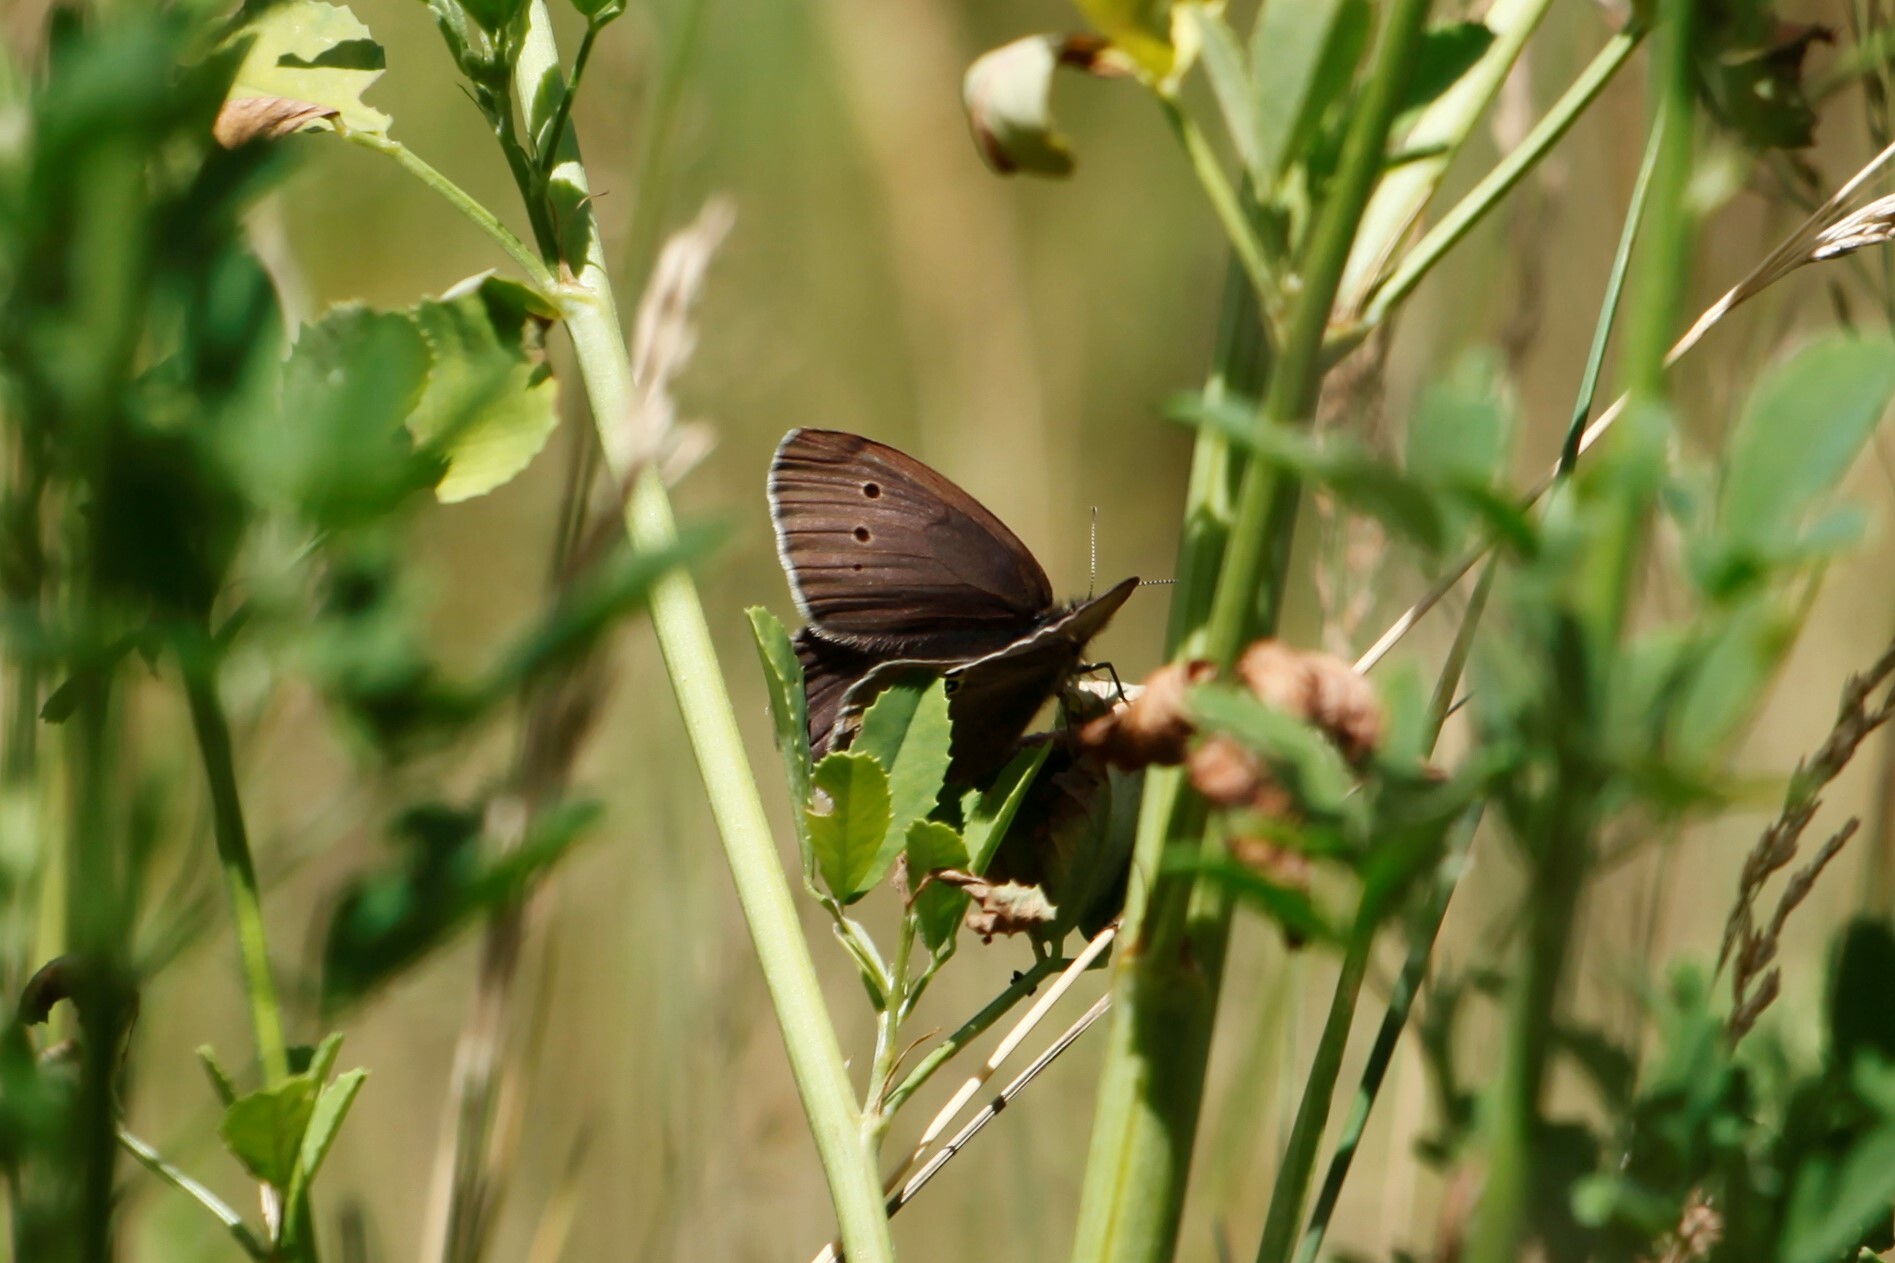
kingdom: Animalia
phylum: Arthropoda
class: Insecta
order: Lepidoptera
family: Nymphalidae
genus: Aphantopus
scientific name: Aphantopus hyperantus
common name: Ringlet
